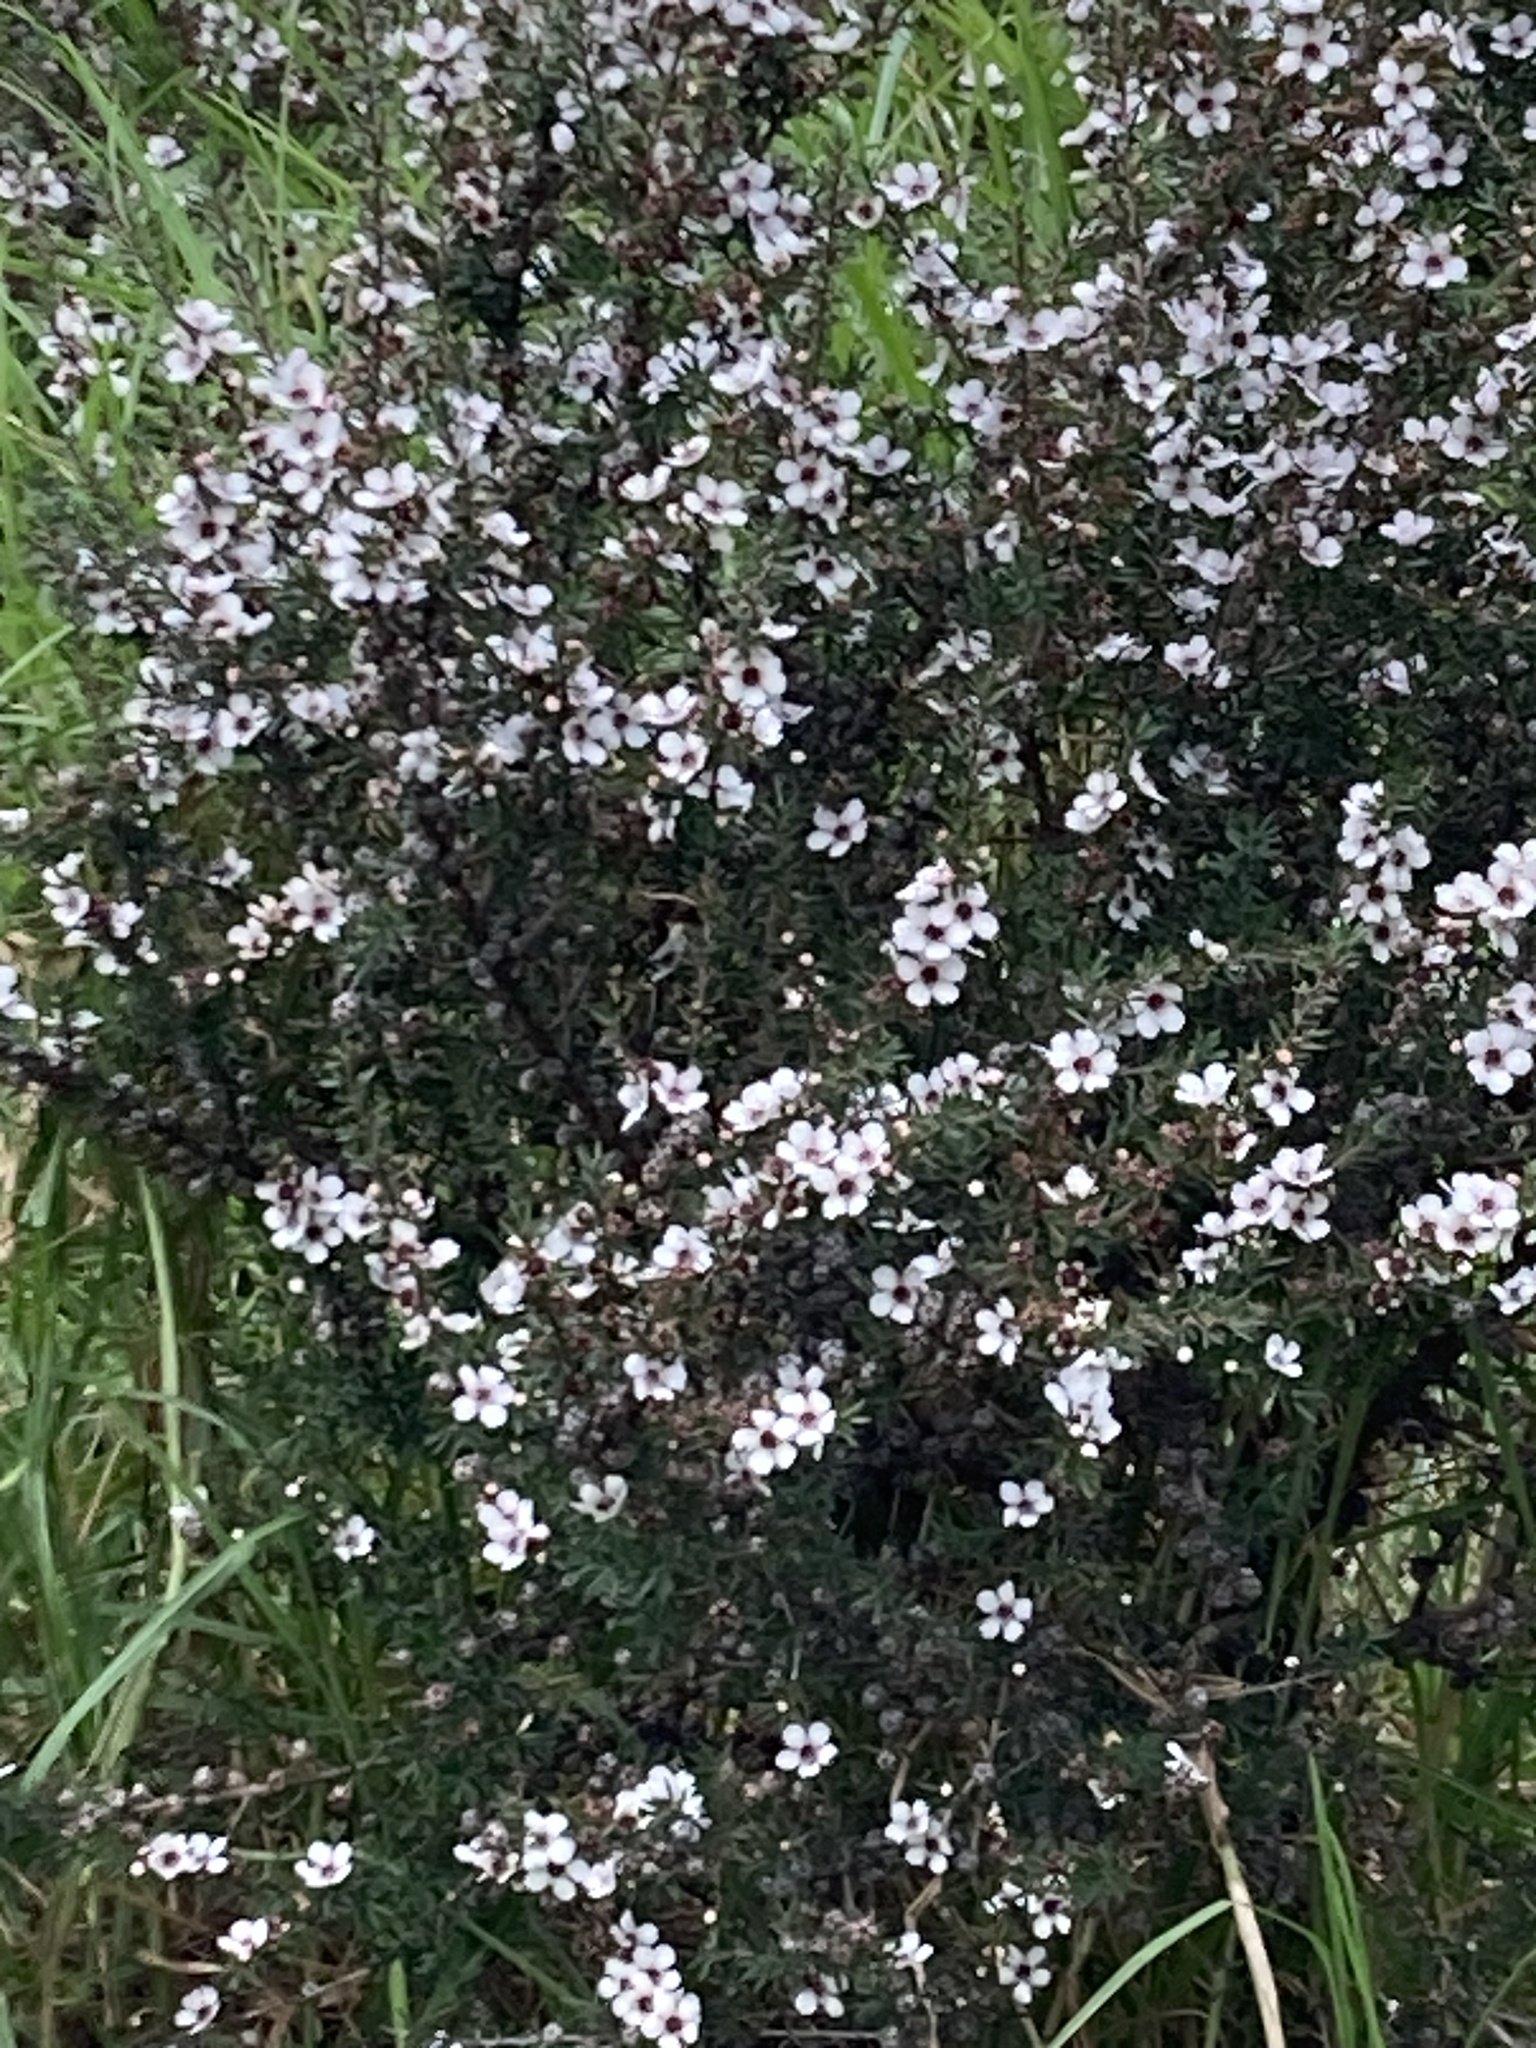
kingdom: Plantae
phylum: Tracheophyta
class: Magnoliopsida
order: Myrtales
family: Myrtaceae
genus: Leptospermum
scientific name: Leptospermum scoparium
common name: Broom tea-tree
